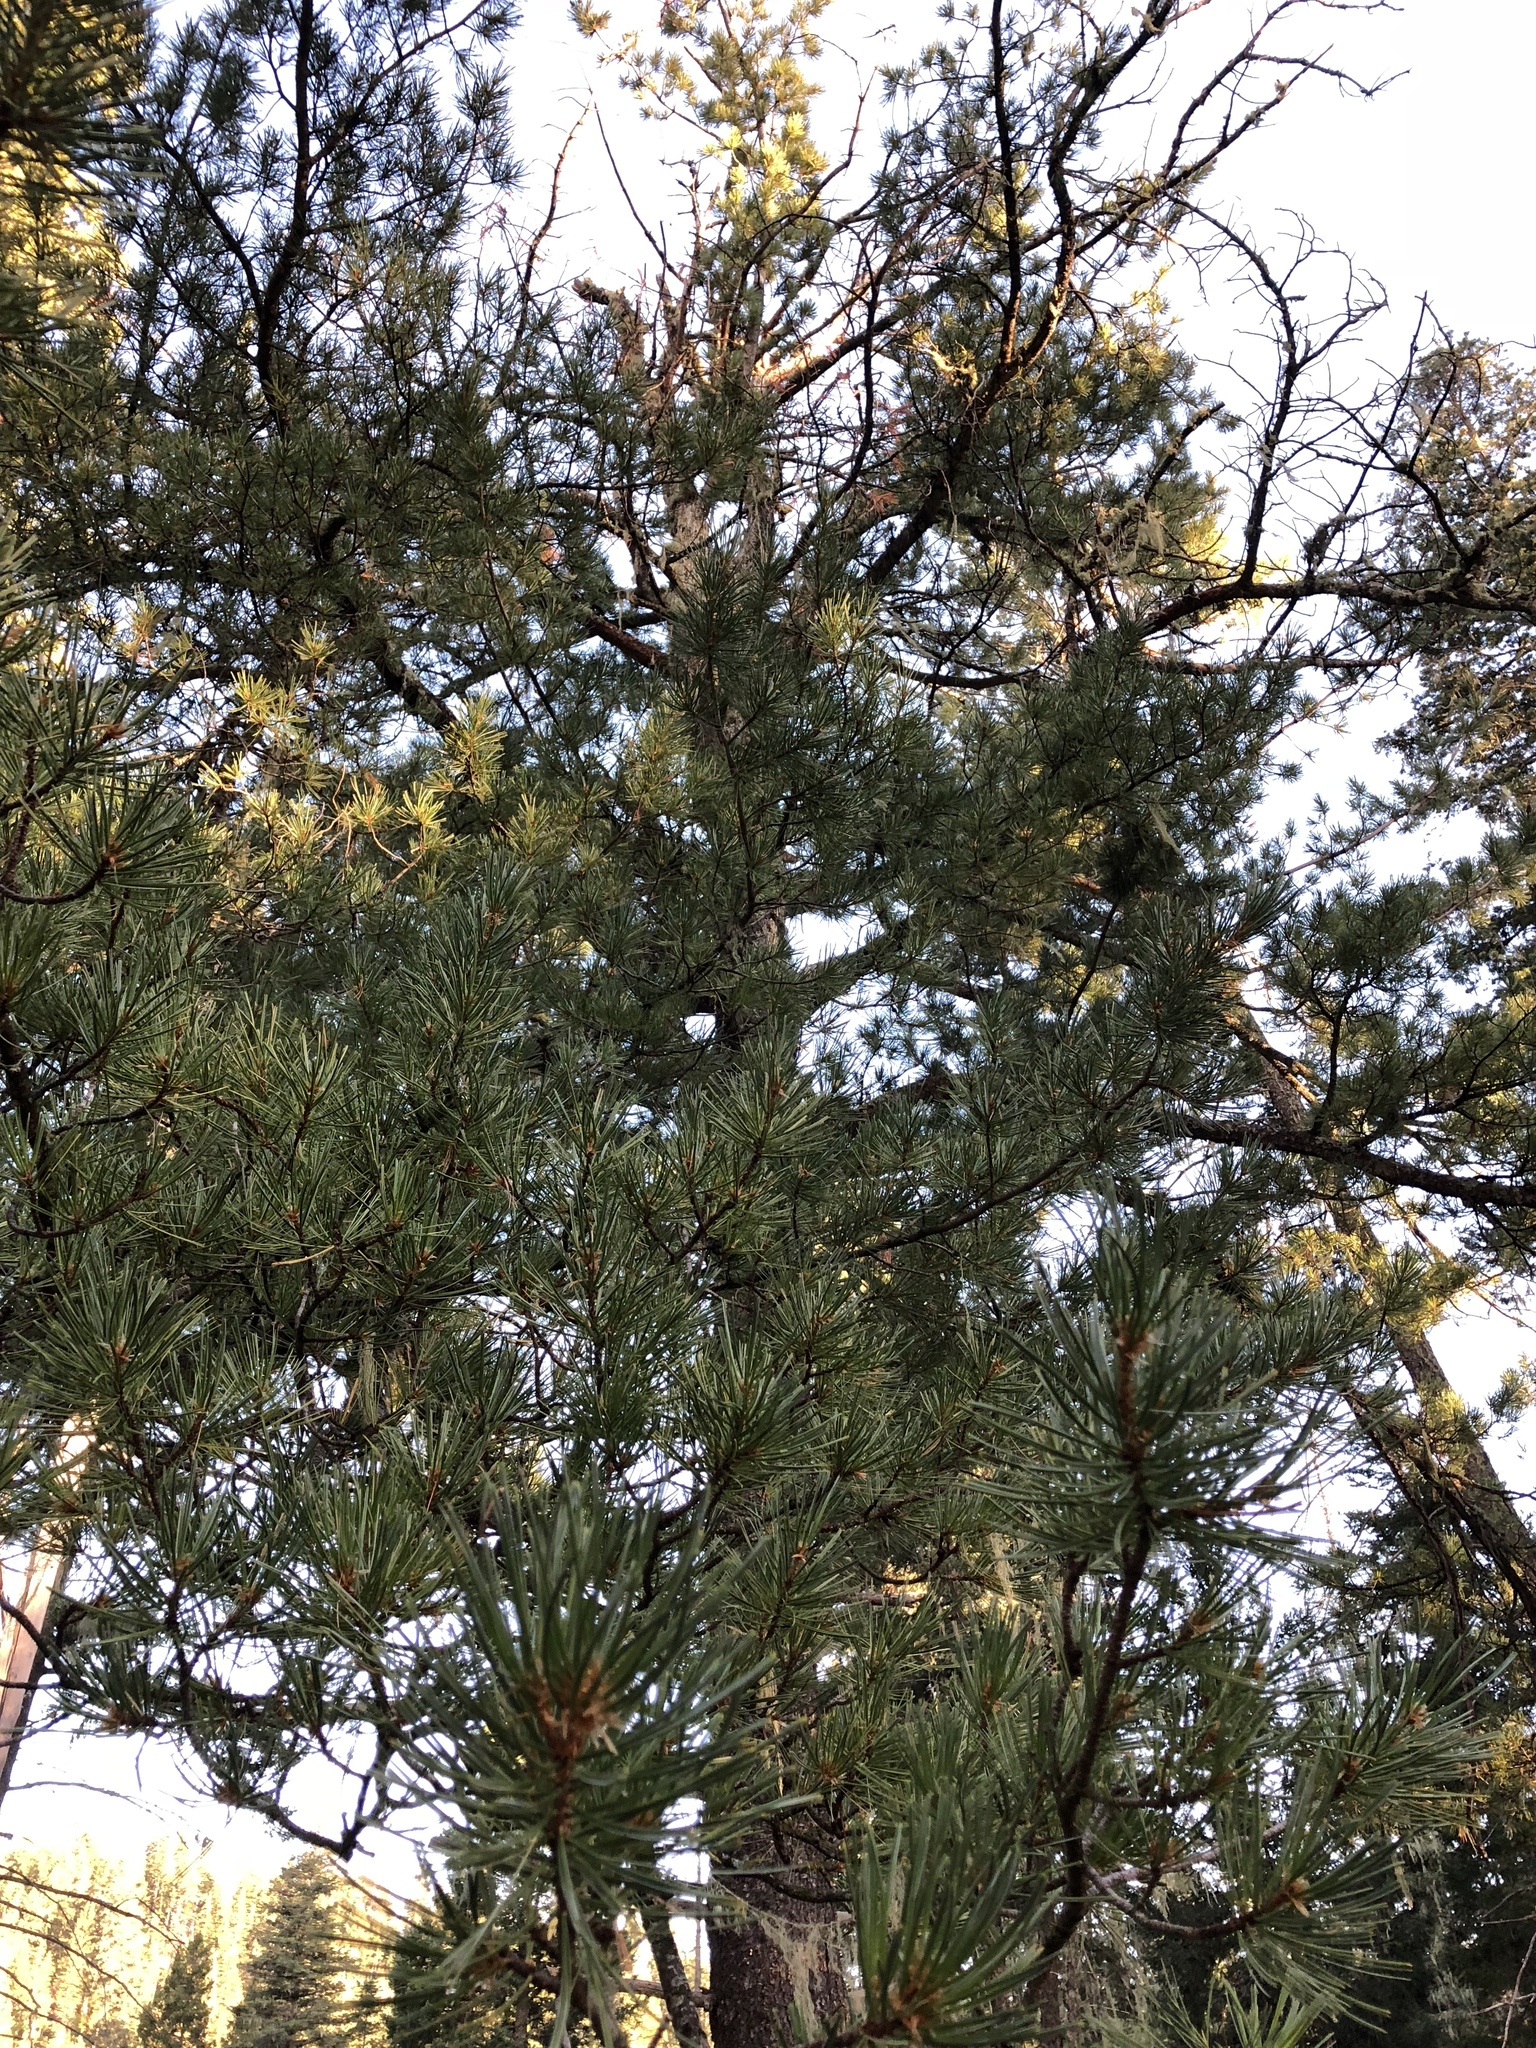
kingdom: Plantae
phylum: Tracheophyta
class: Pinopsida
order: Pinales
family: Pinaceae
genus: Pinus
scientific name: Pinus strobiformis
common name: Southwestern white pine
